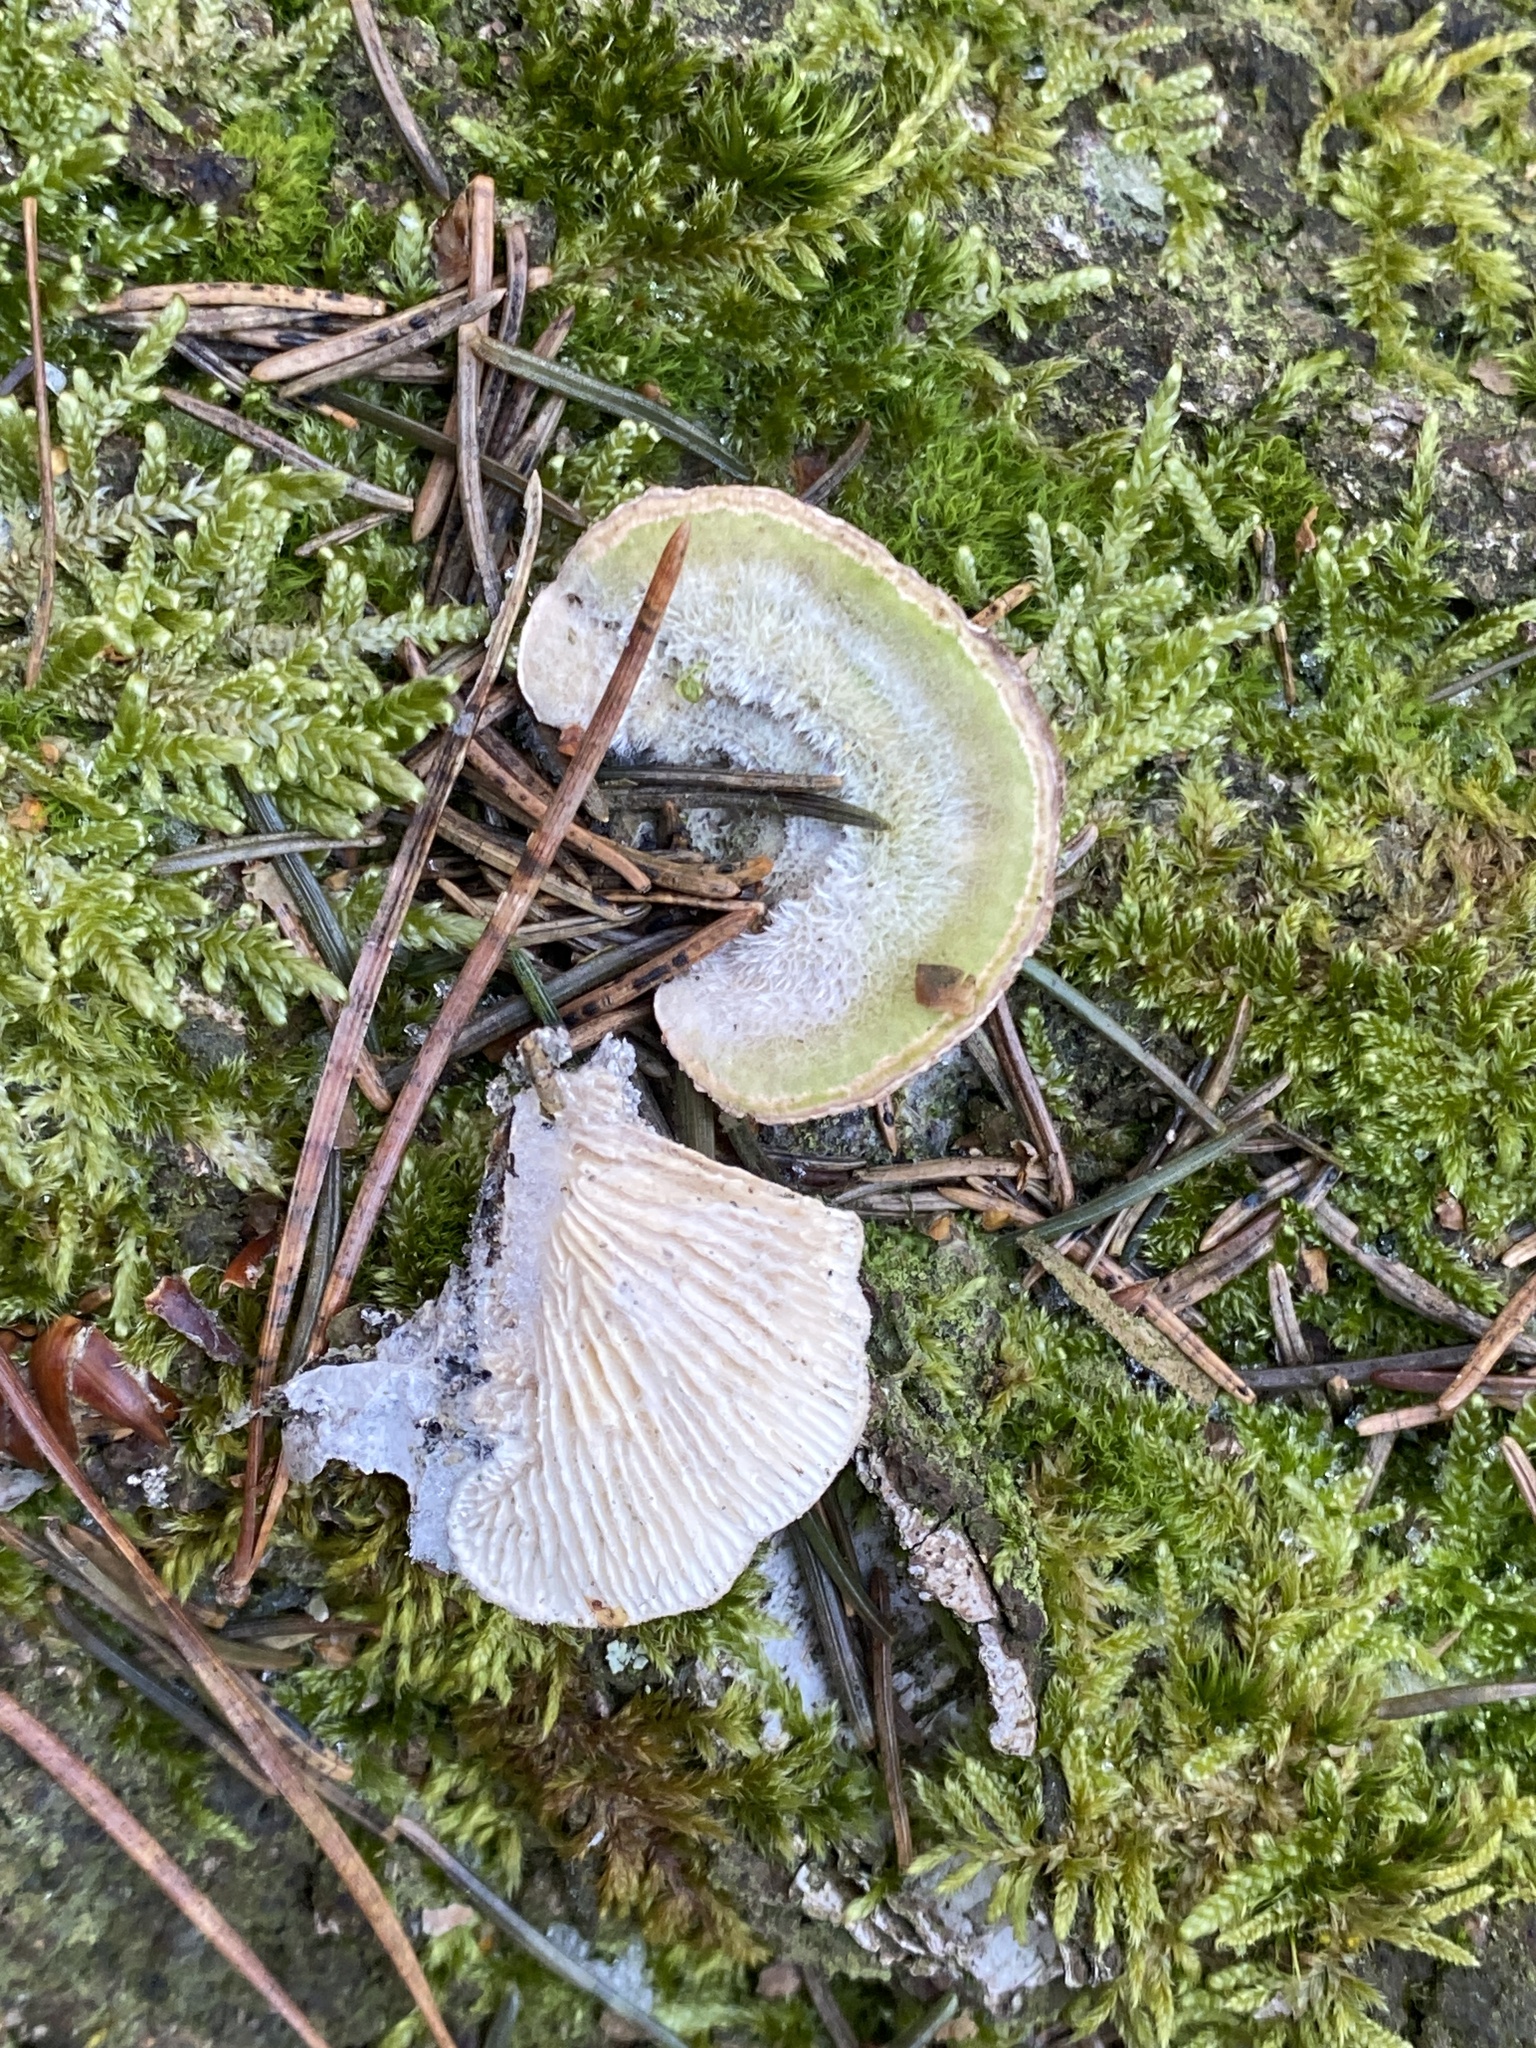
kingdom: Fungi
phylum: Basidiomycota
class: Agaricomycetes
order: Polyporales
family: Polyporaceae
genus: Lenzites
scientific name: Lenzites betulinus
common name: Birch mazegill
